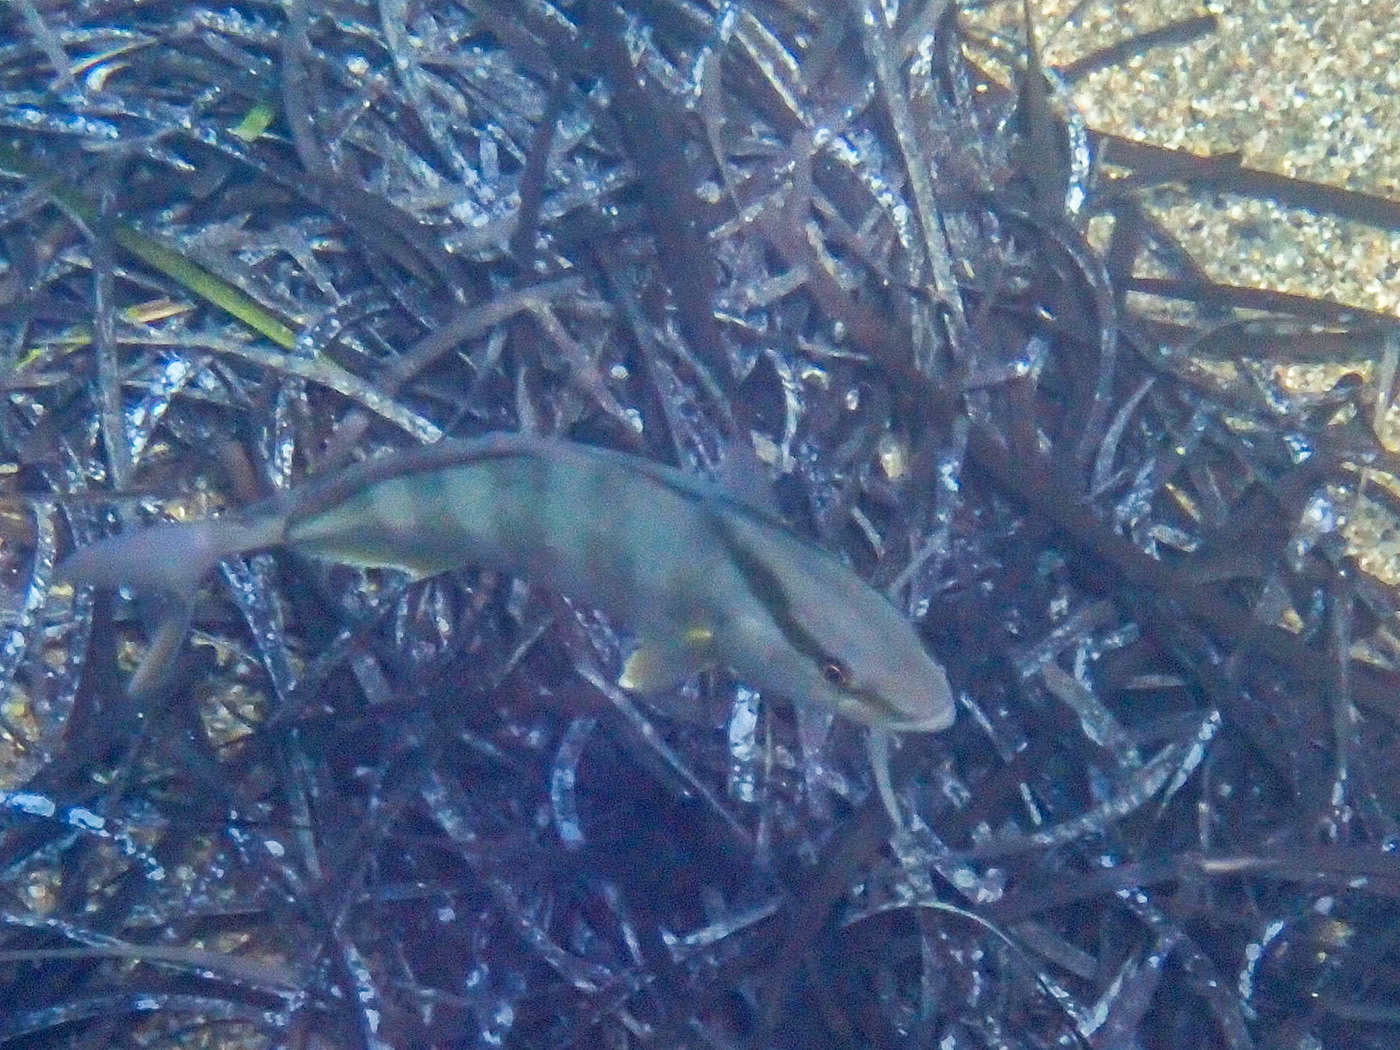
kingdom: Animalia
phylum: Chordata
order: Perciformes
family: Carangidae
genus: Seriola
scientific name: Seriola dumerili
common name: Greater amberjack
